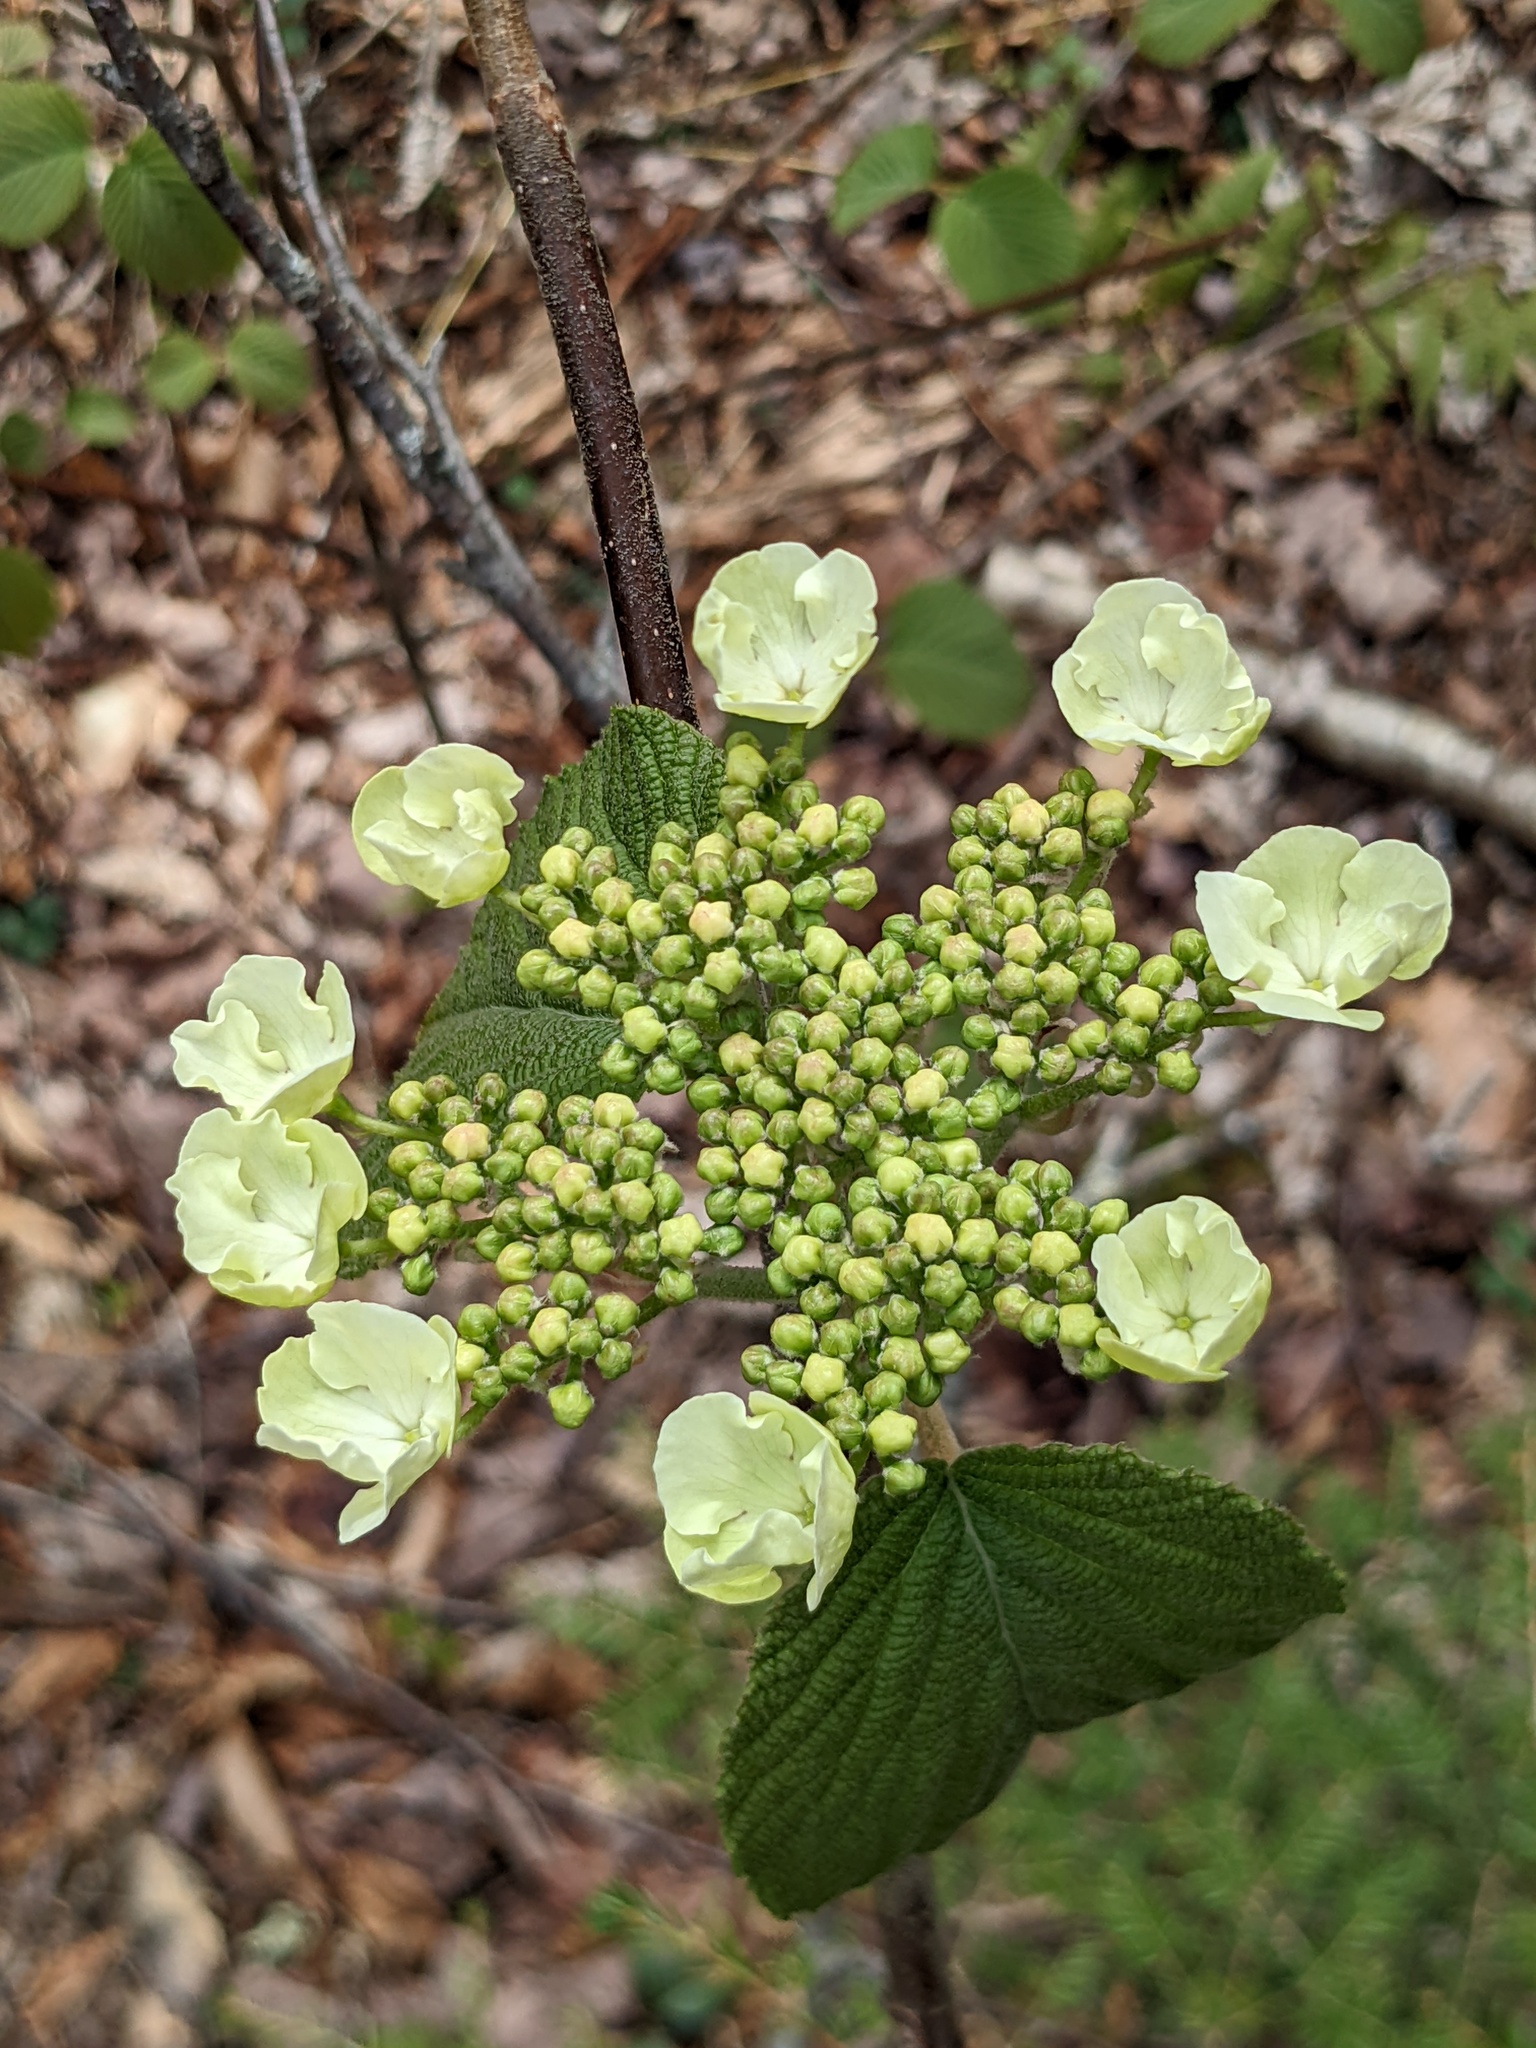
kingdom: Plantae
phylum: Tracheophyta
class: Magnoliopsida
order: Dipsacales
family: Viburnaceae
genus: Viburnum
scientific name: Viburnum lantanoides
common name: Hobblebush
